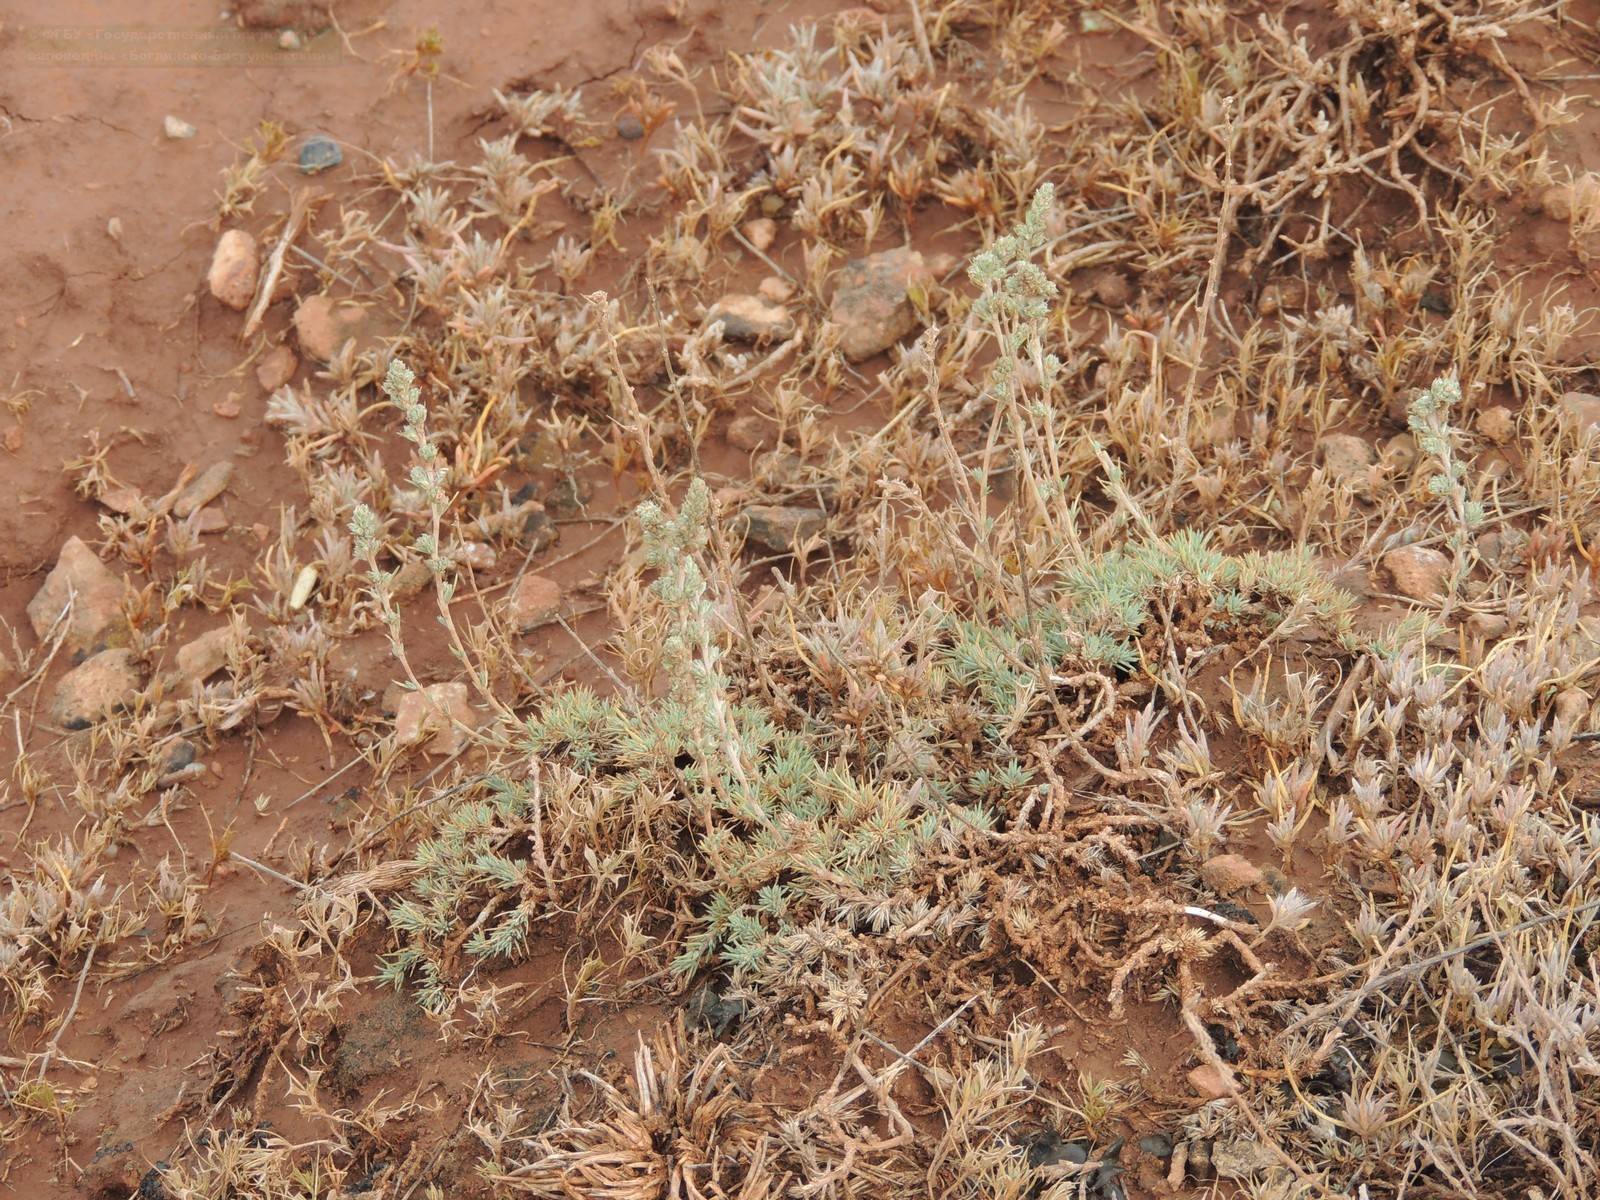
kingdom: Plantae
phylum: Tracheophyta
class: Magnoliopsida
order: Caryophyllales
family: Amaranthaceae
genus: Camphorosma
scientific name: Camphorosma monspeliaca
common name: Camphorfume
